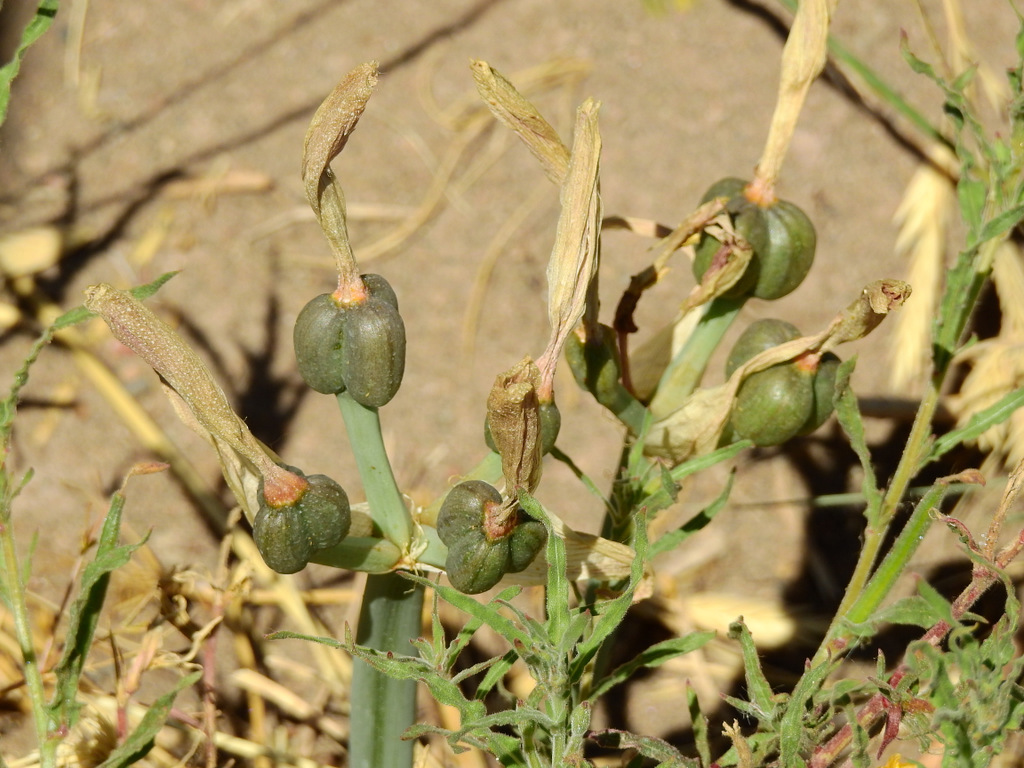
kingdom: Plantae
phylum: Tracheophyta
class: Liliopsida
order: Asparagales
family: Amaryllidaceae
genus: Zephyranthes
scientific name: Zephyranthes gilliesiana
